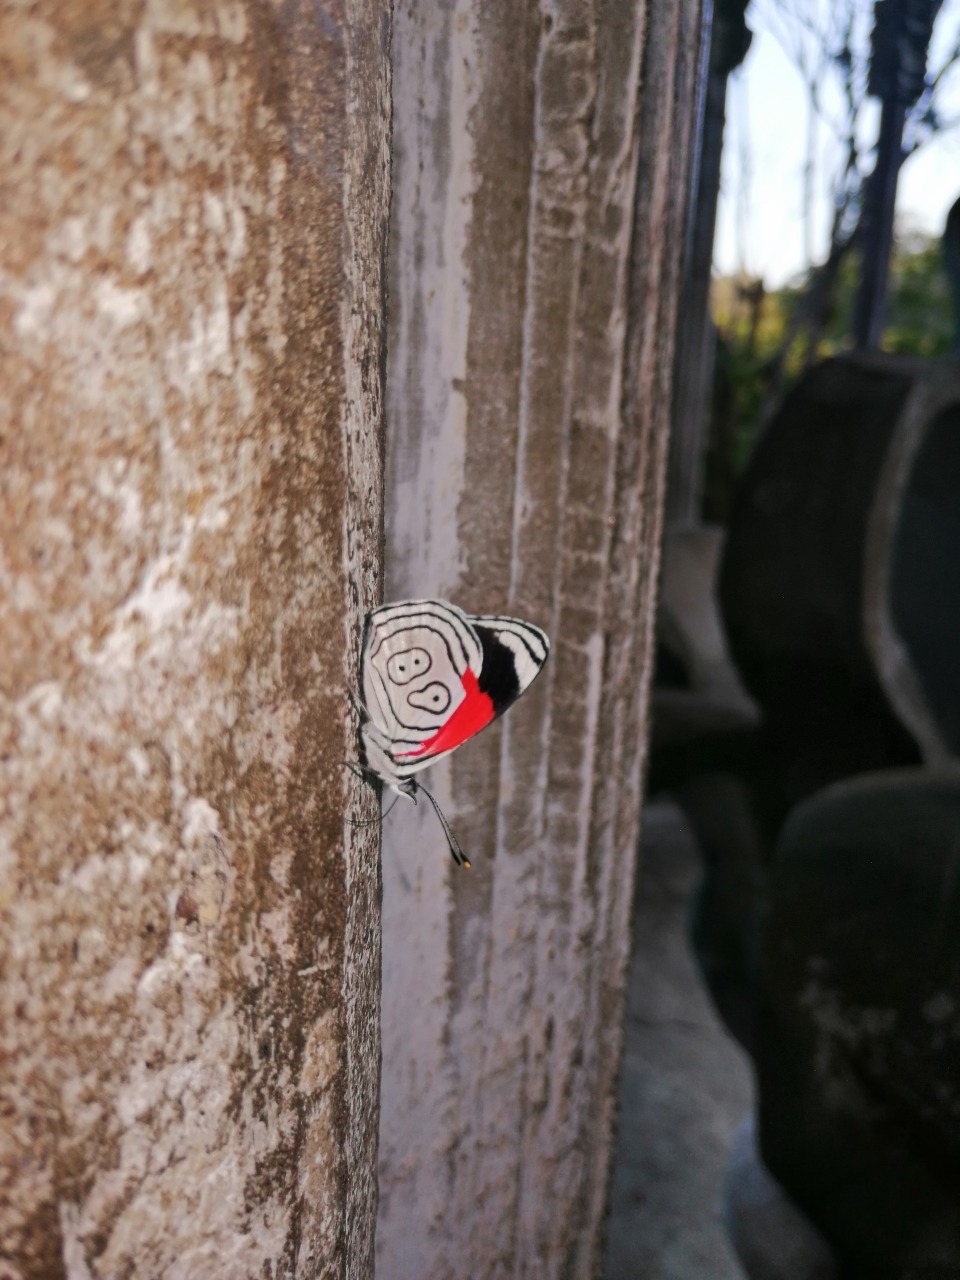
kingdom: Animalia
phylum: Arthropoda
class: Insecta
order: Lepidoptera
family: Nymphalidae
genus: Diaethria
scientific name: Diaethria anna
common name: Anna’s eighty-eight
